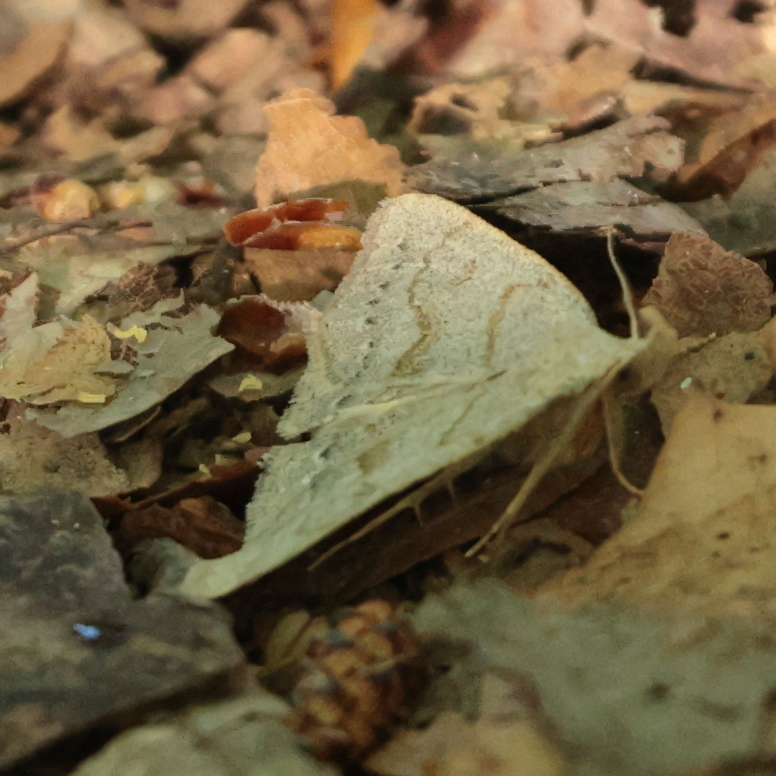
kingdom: Animalia
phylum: Arthropoda
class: Insecta
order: Lepidoptera
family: Erebidae
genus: Macrochilo
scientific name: Macrochilo morbidalis
